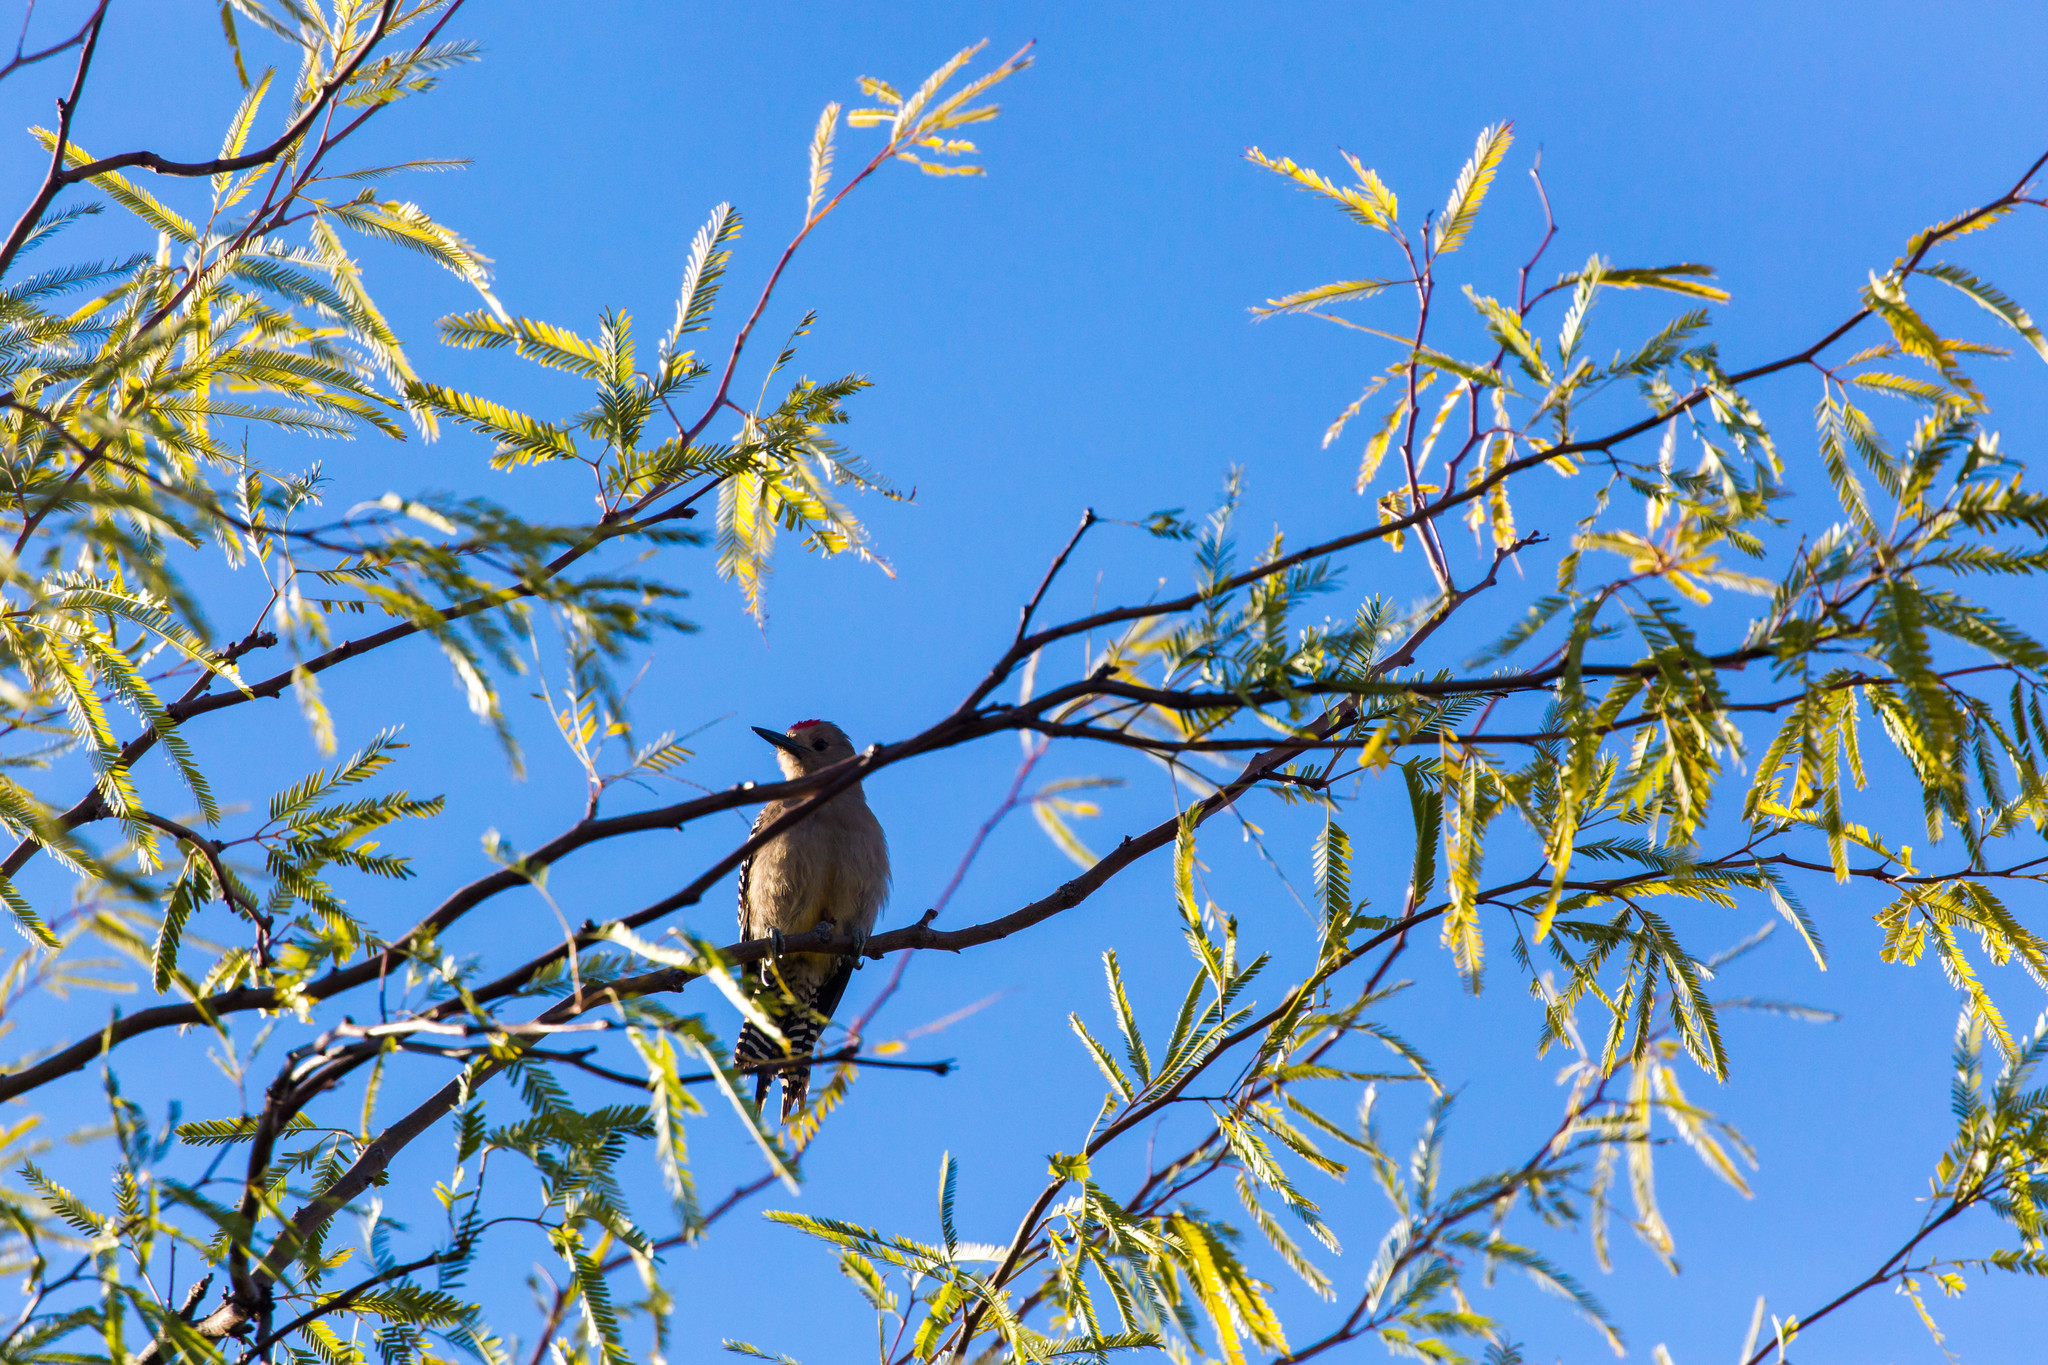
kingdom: Animalia
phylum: Chordata
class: Aves
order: Piciformes
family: Picidae
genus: Melanerpes
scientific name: Melanerpes uropygialis
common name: Gila woodpecker
